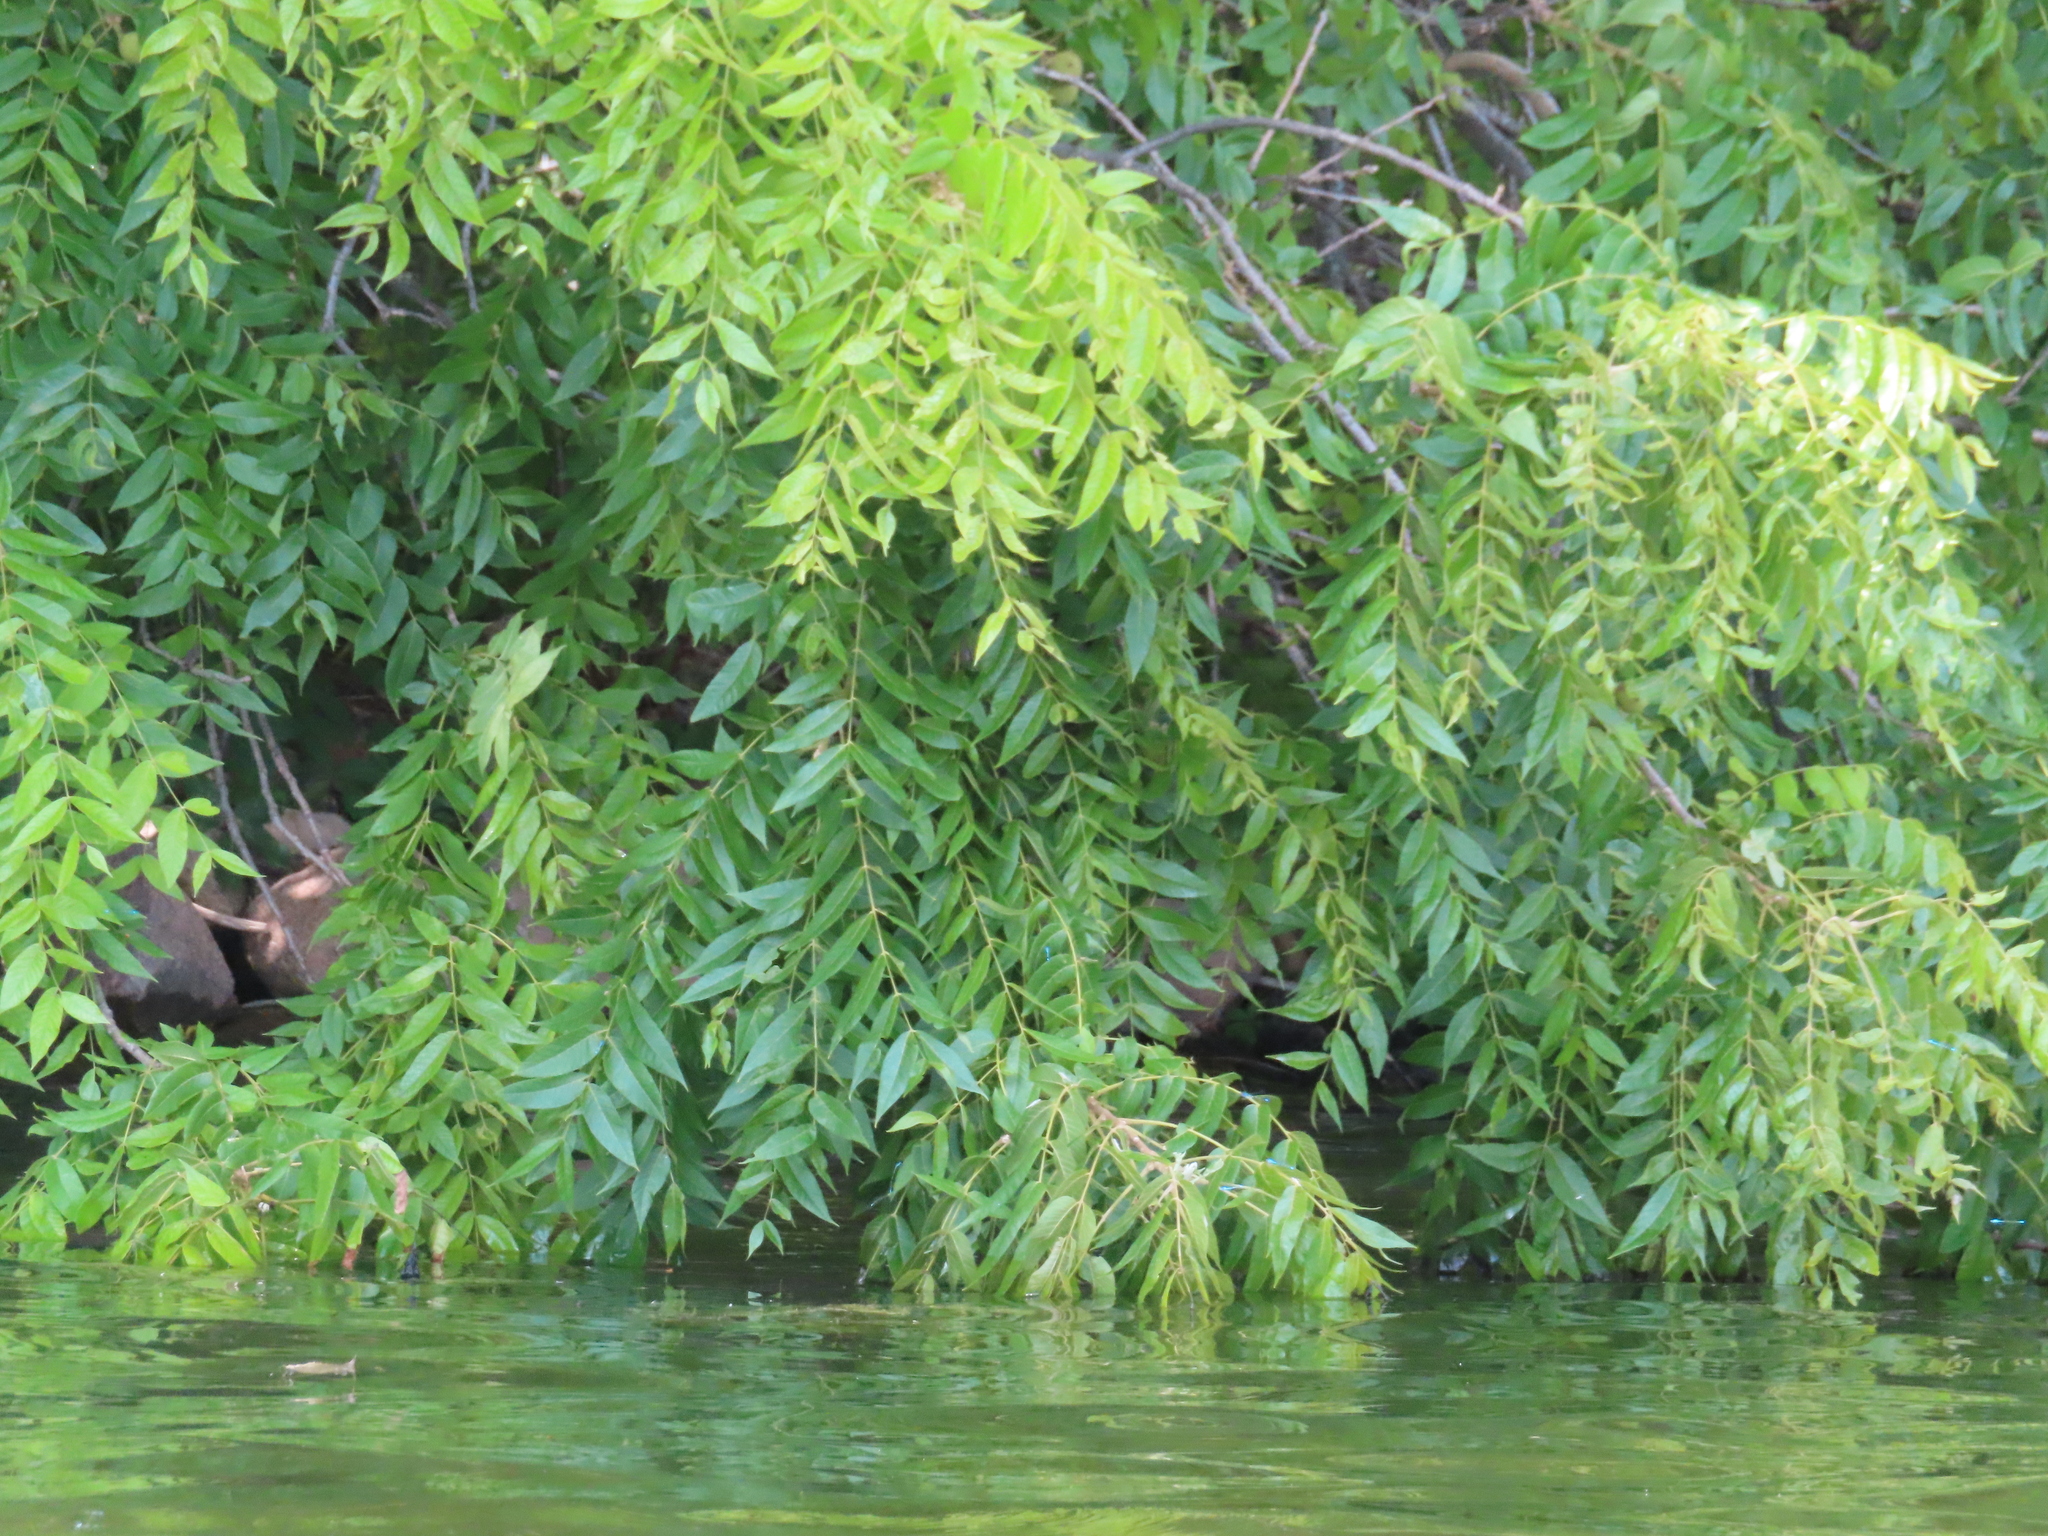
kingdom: Plantae
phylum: Tracheophyta
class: Magnoliopsida
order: Fagales
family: Juglandaceae
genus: Juglans
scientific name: Juglans nigra
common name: Black walnut
